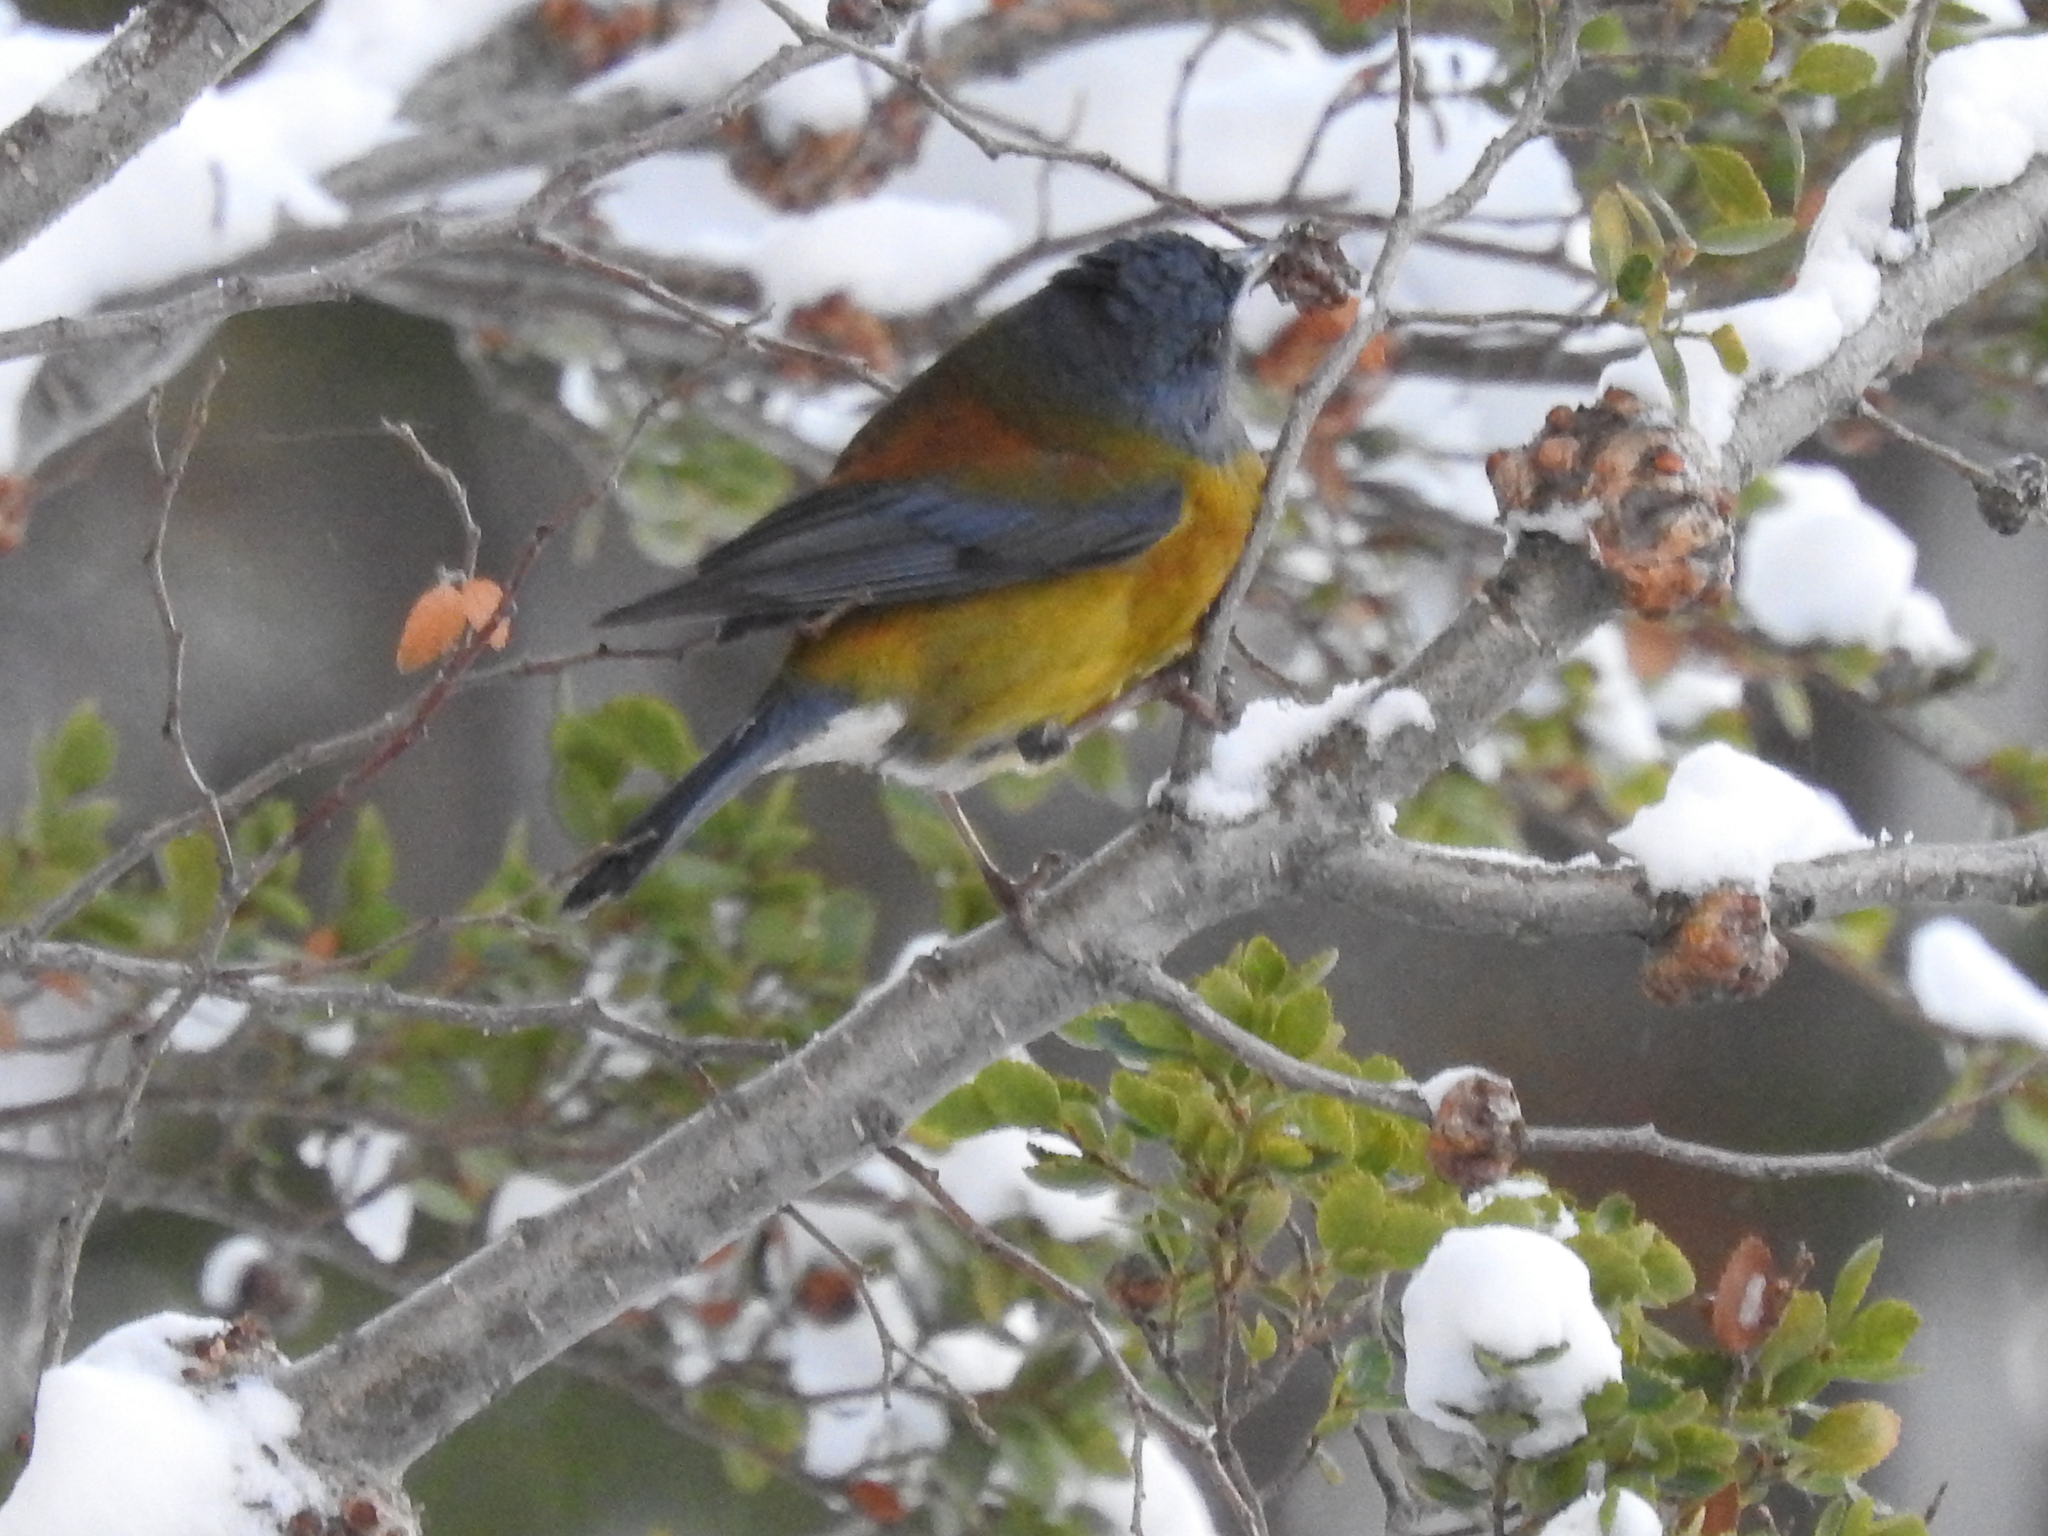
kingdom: Animalia
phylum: Chordata
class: Aves
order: Passeriformes
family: Thraupidae
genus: Phrygilus
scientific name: Phrygilus patagonicus
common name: Patagonian sierra finch
